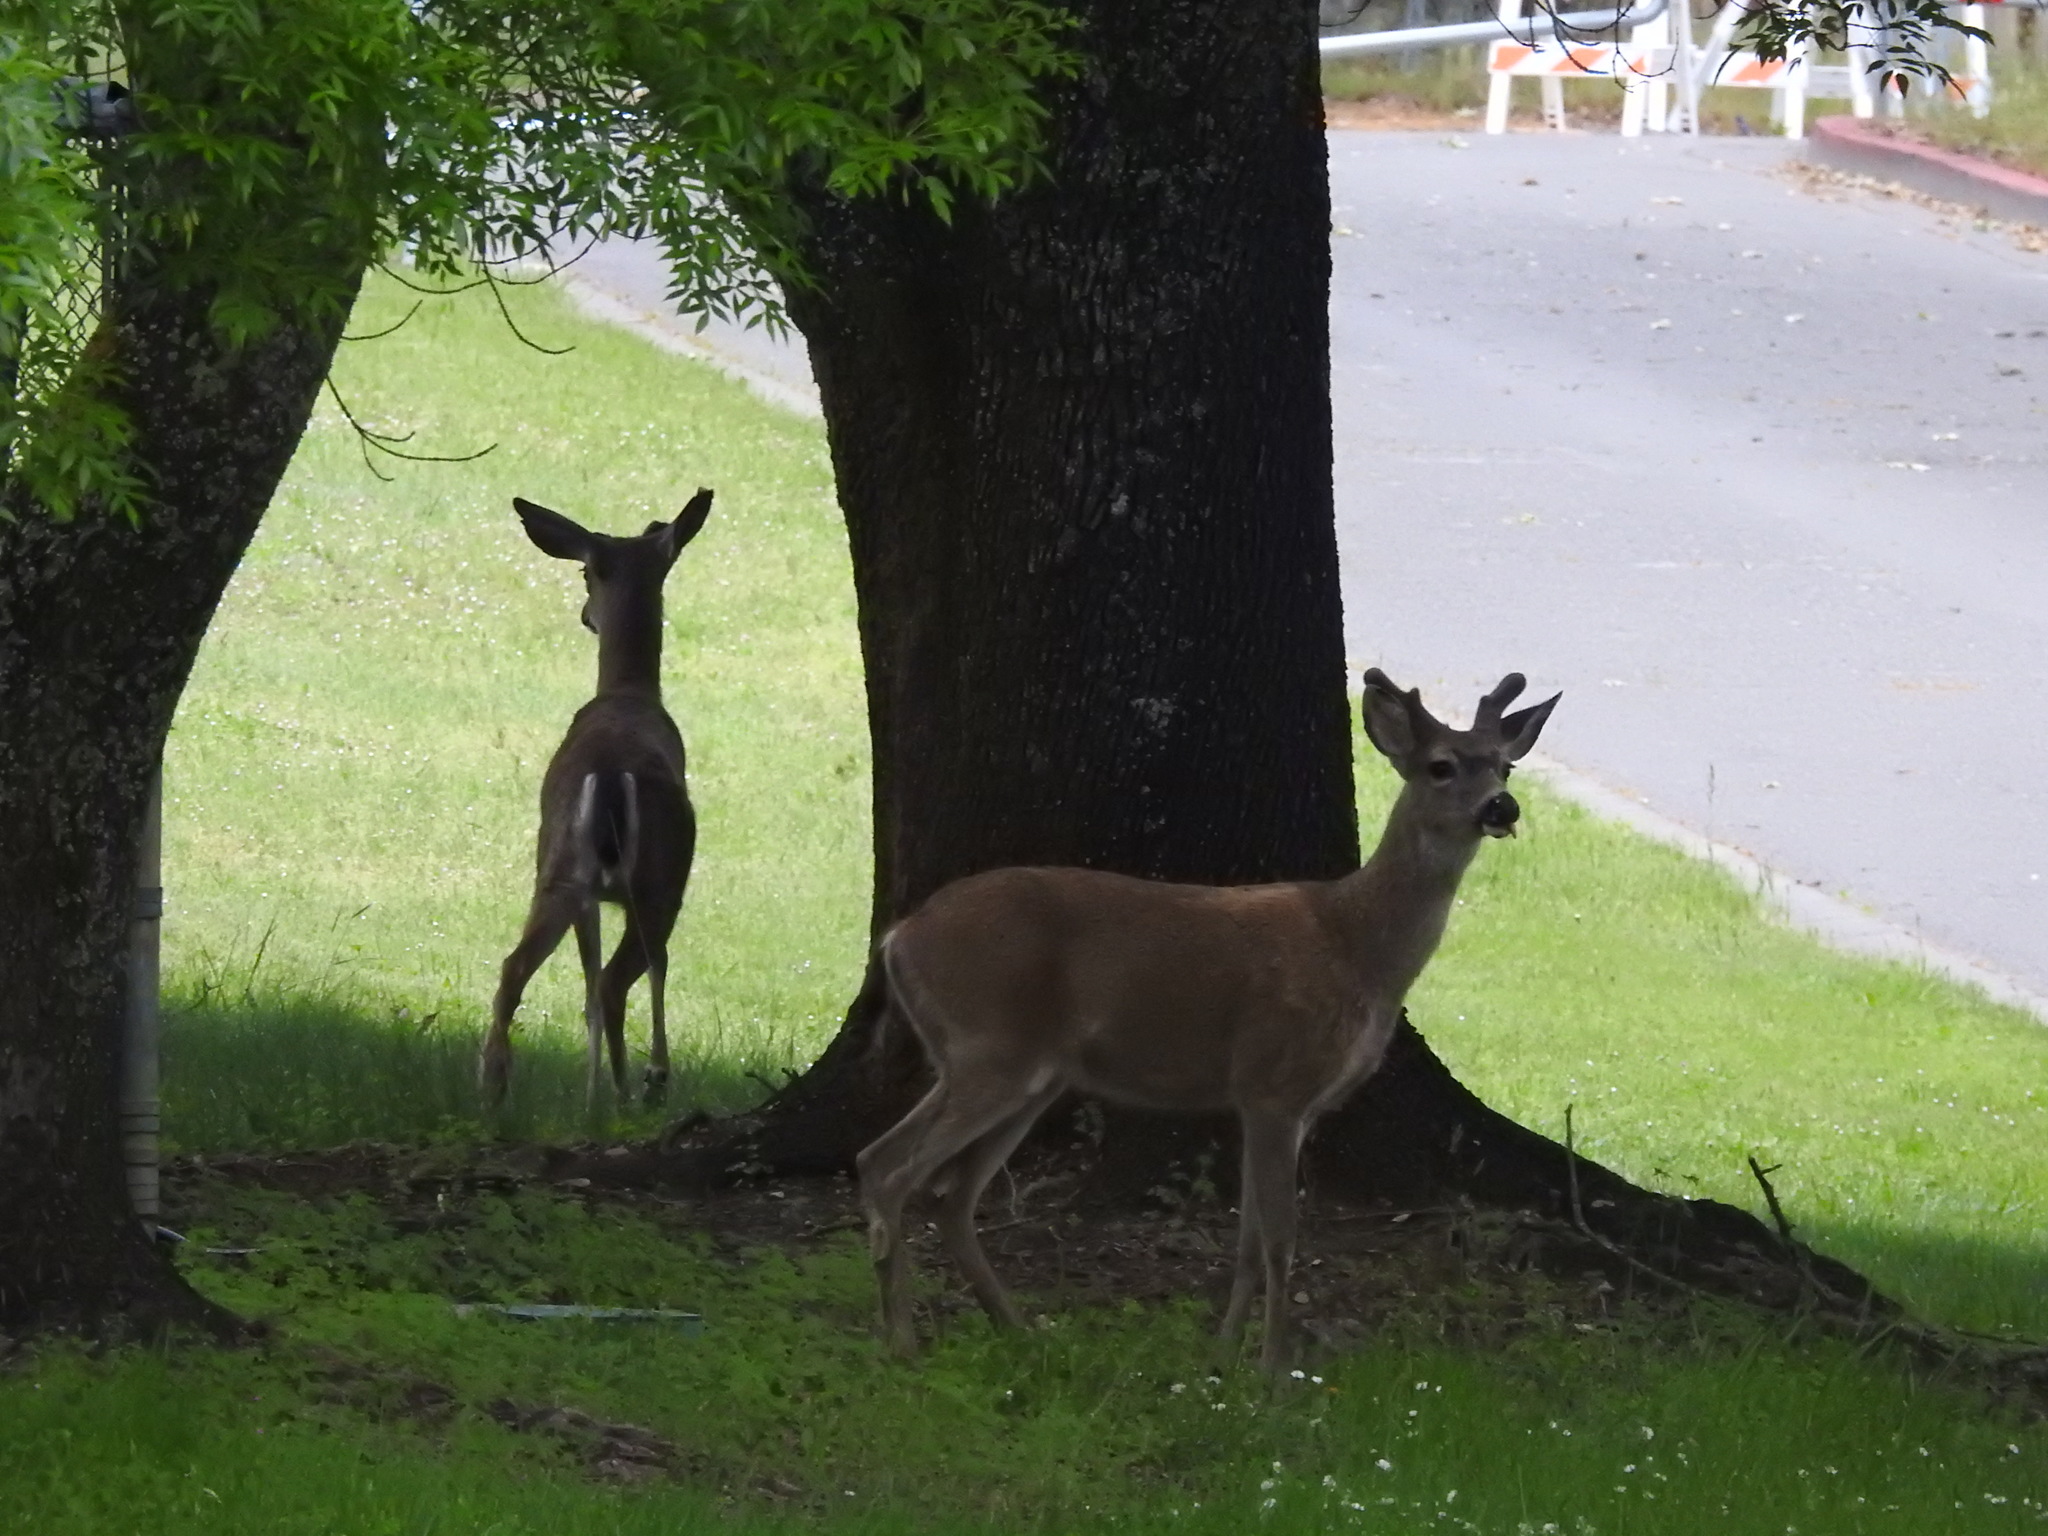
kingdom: Animalia
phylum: Chordata
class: Mammalia
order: Artiodactyla
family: Cervidae
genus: Odocoileus
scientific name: Odocoileus hemionus
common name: Mule deer
